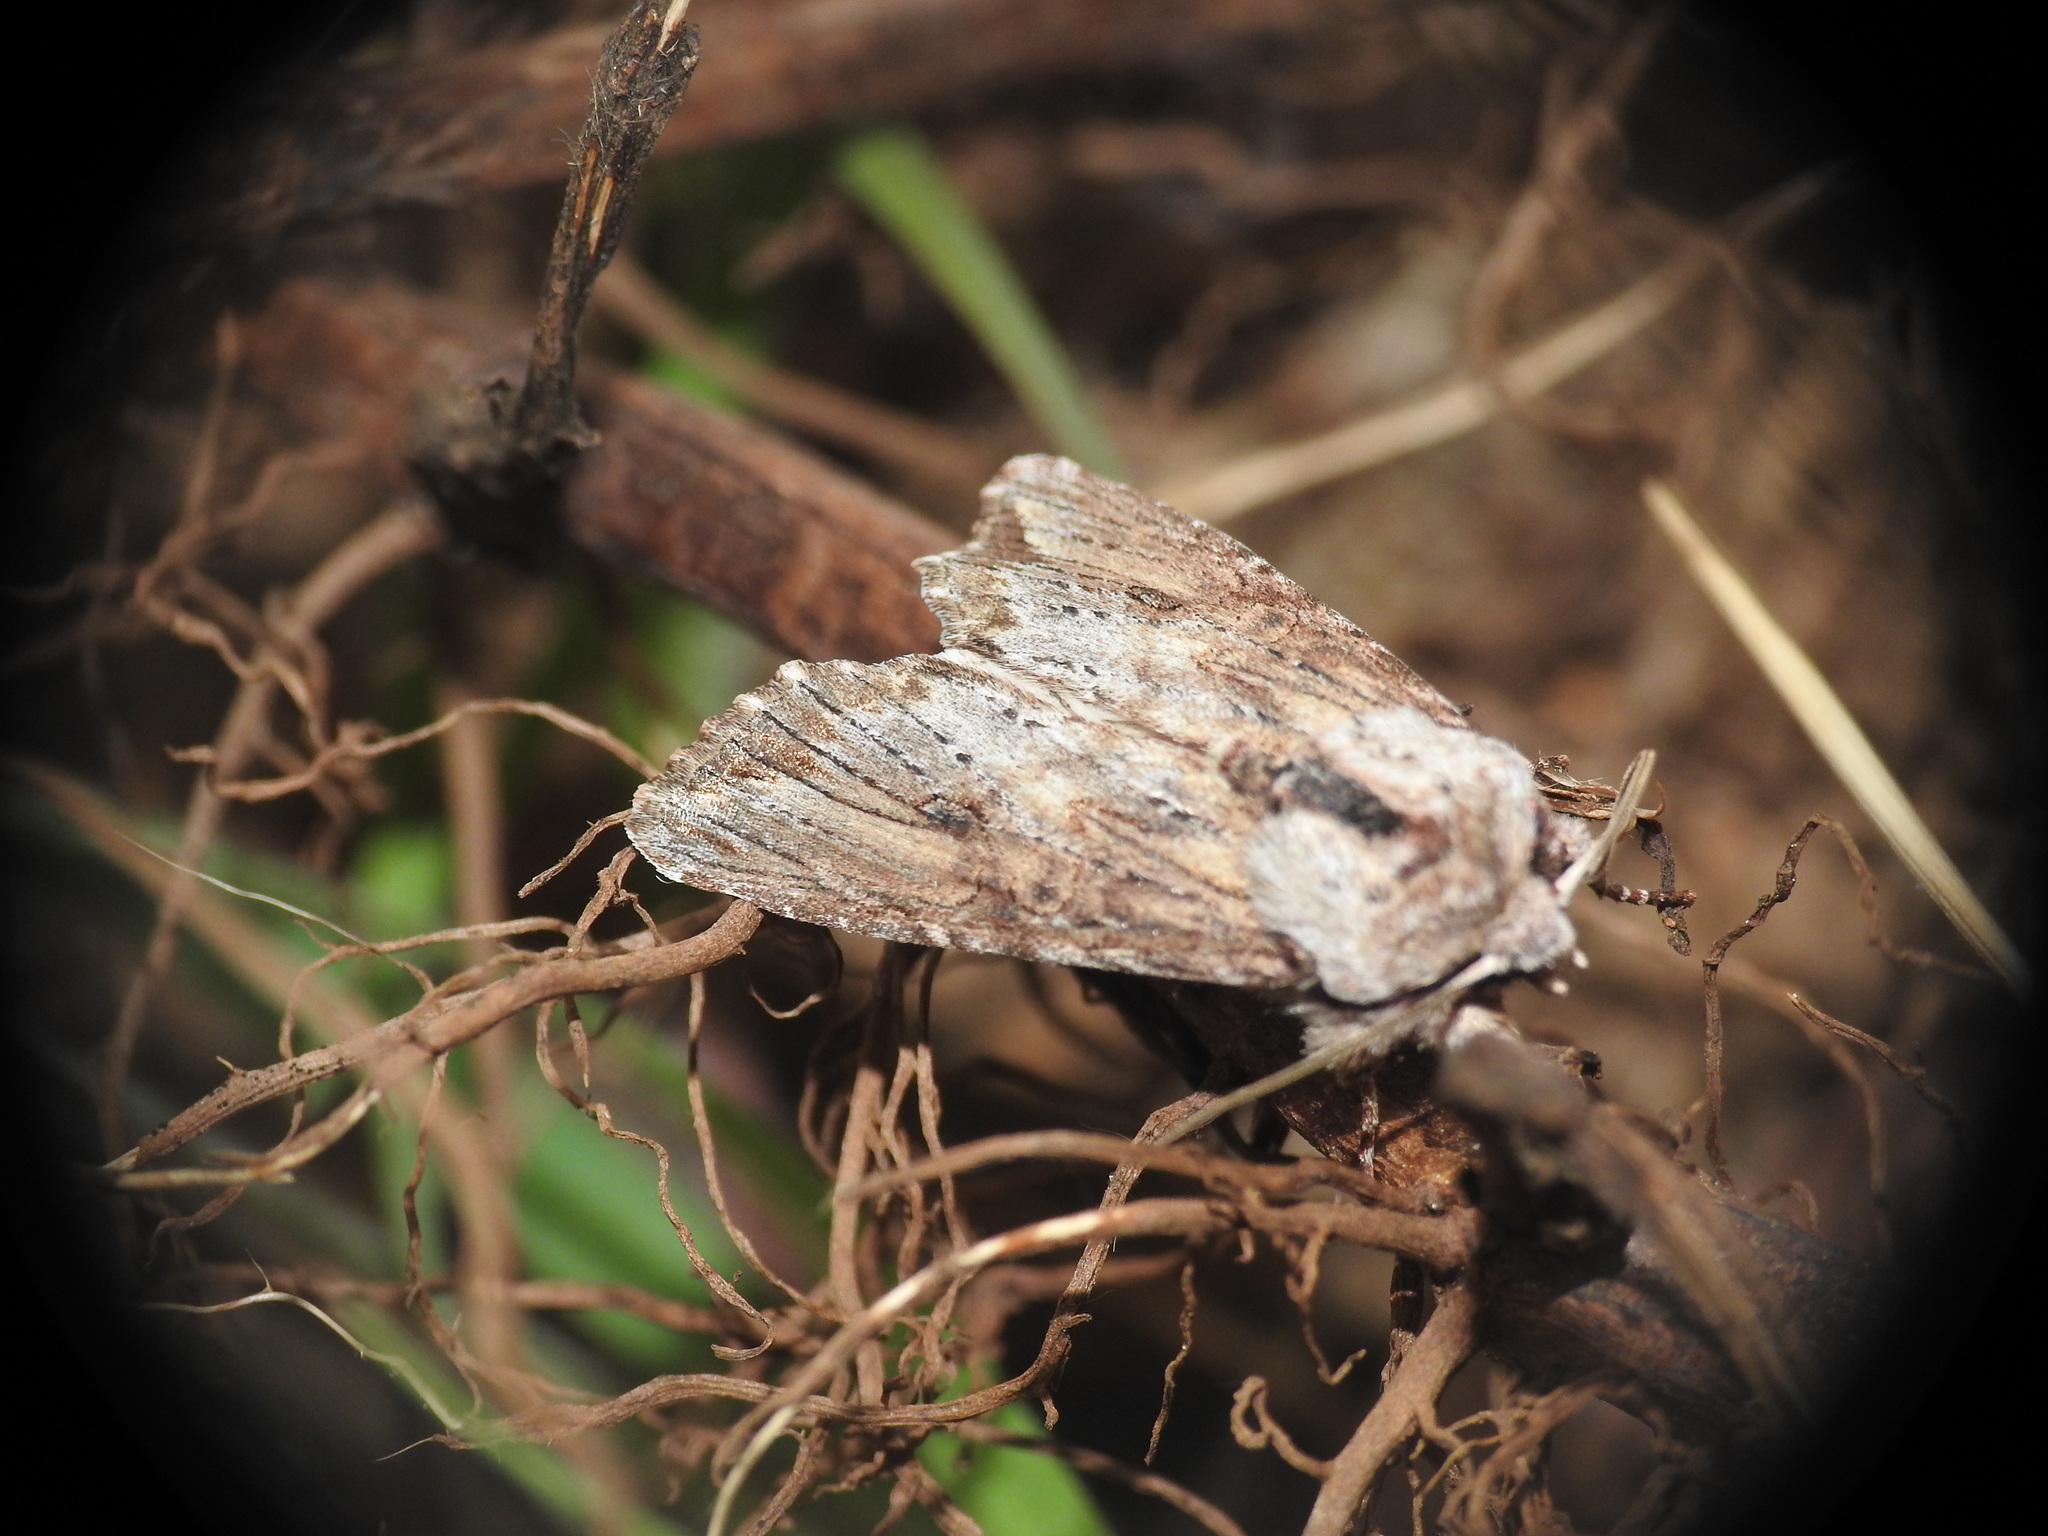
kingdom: Animalia
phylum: Arthropoda
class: Insecta
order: Lepidoptera
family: Noctuidae
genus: Egira
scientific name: Egira conspicillaris
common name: Silver cloud
